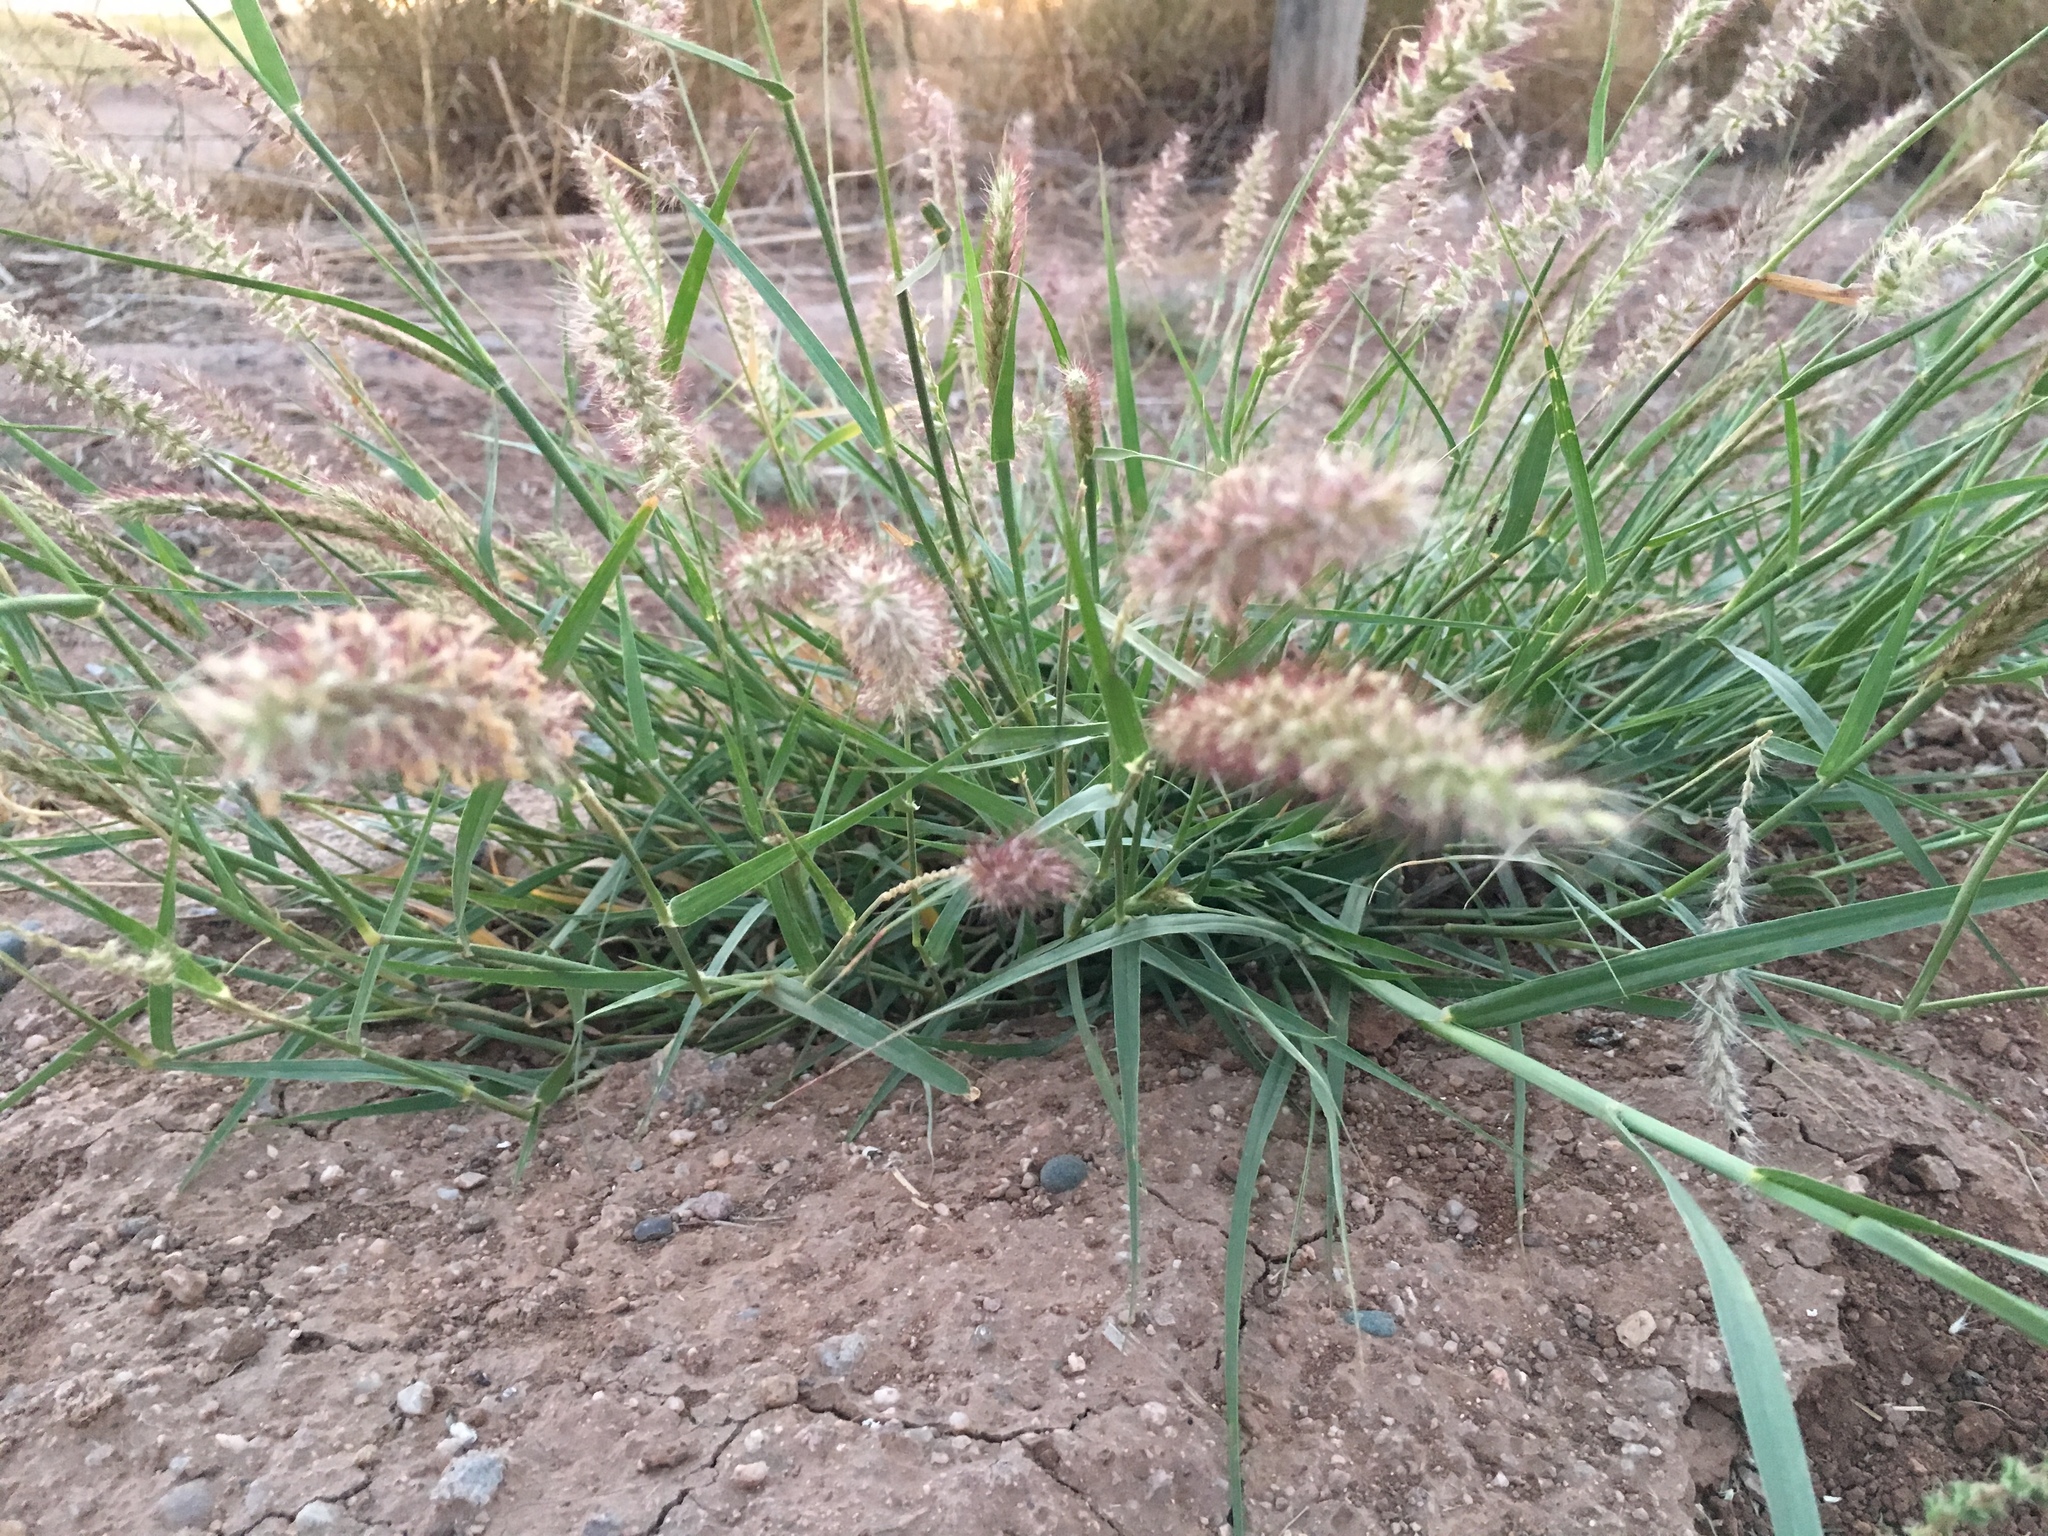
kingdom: Plantae
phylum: Tracheophyta
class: Liliopsida
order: Poales
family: Poaceae
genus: Cenchrus
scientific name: Cenchrus ciliaris
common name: Buffelgrass
